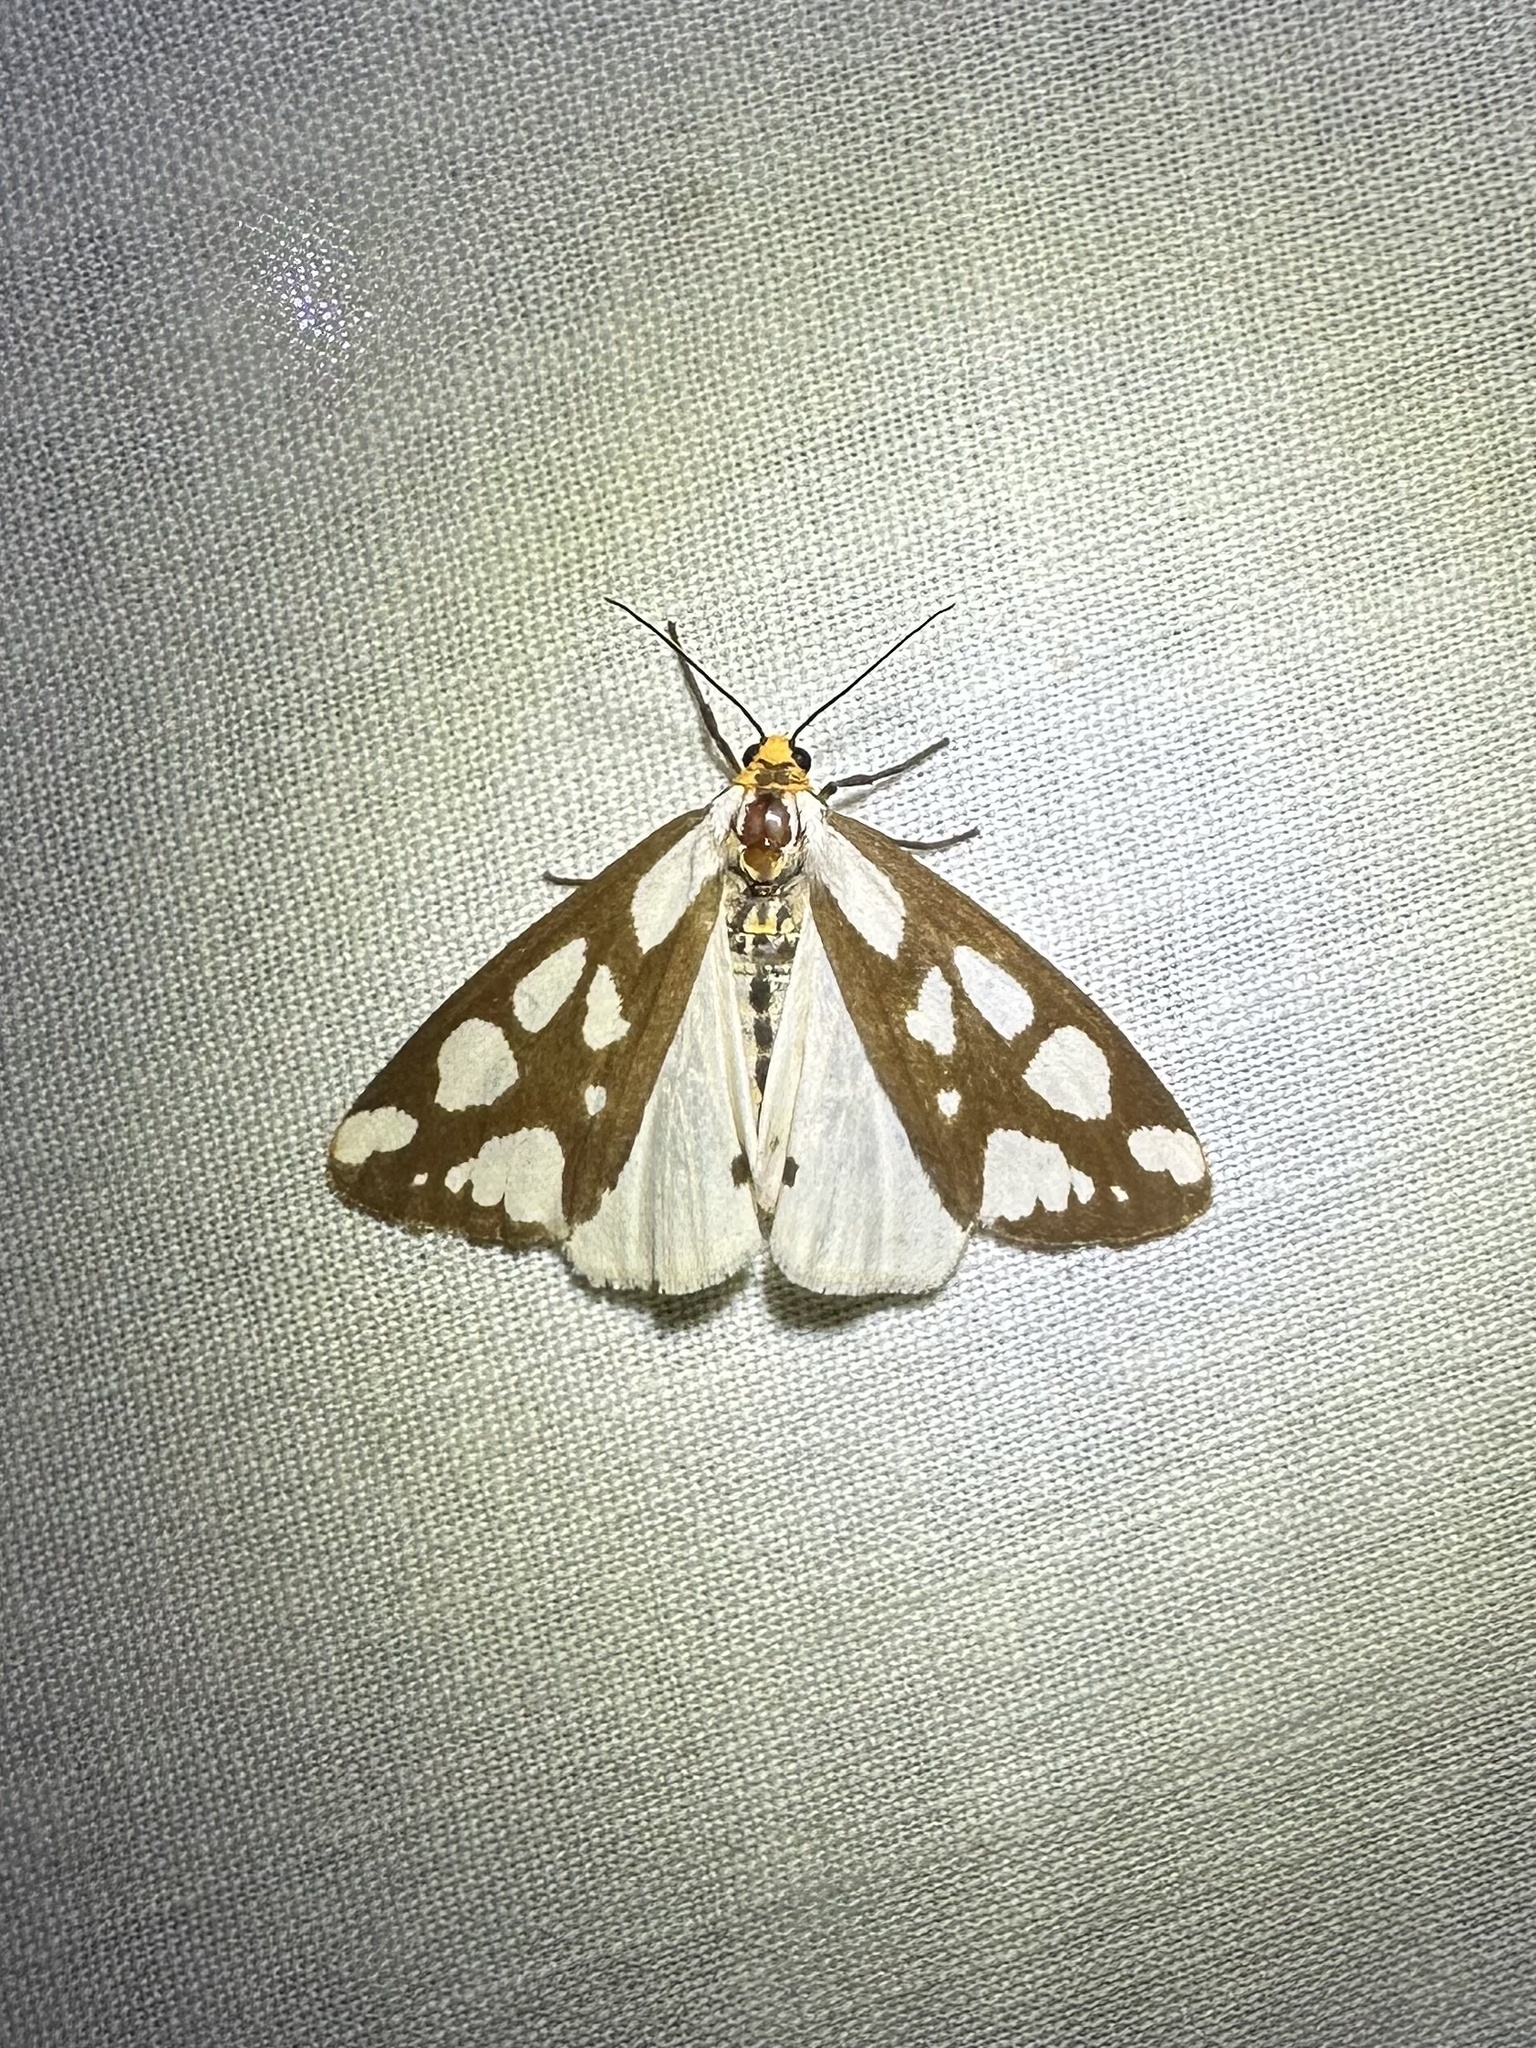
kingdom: Animalia
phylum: Arthropoda
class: Insecta
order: Lepidoptera
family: Erebidae
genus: Haploa
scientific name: Haploa confusa
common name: Confused haploa moth
